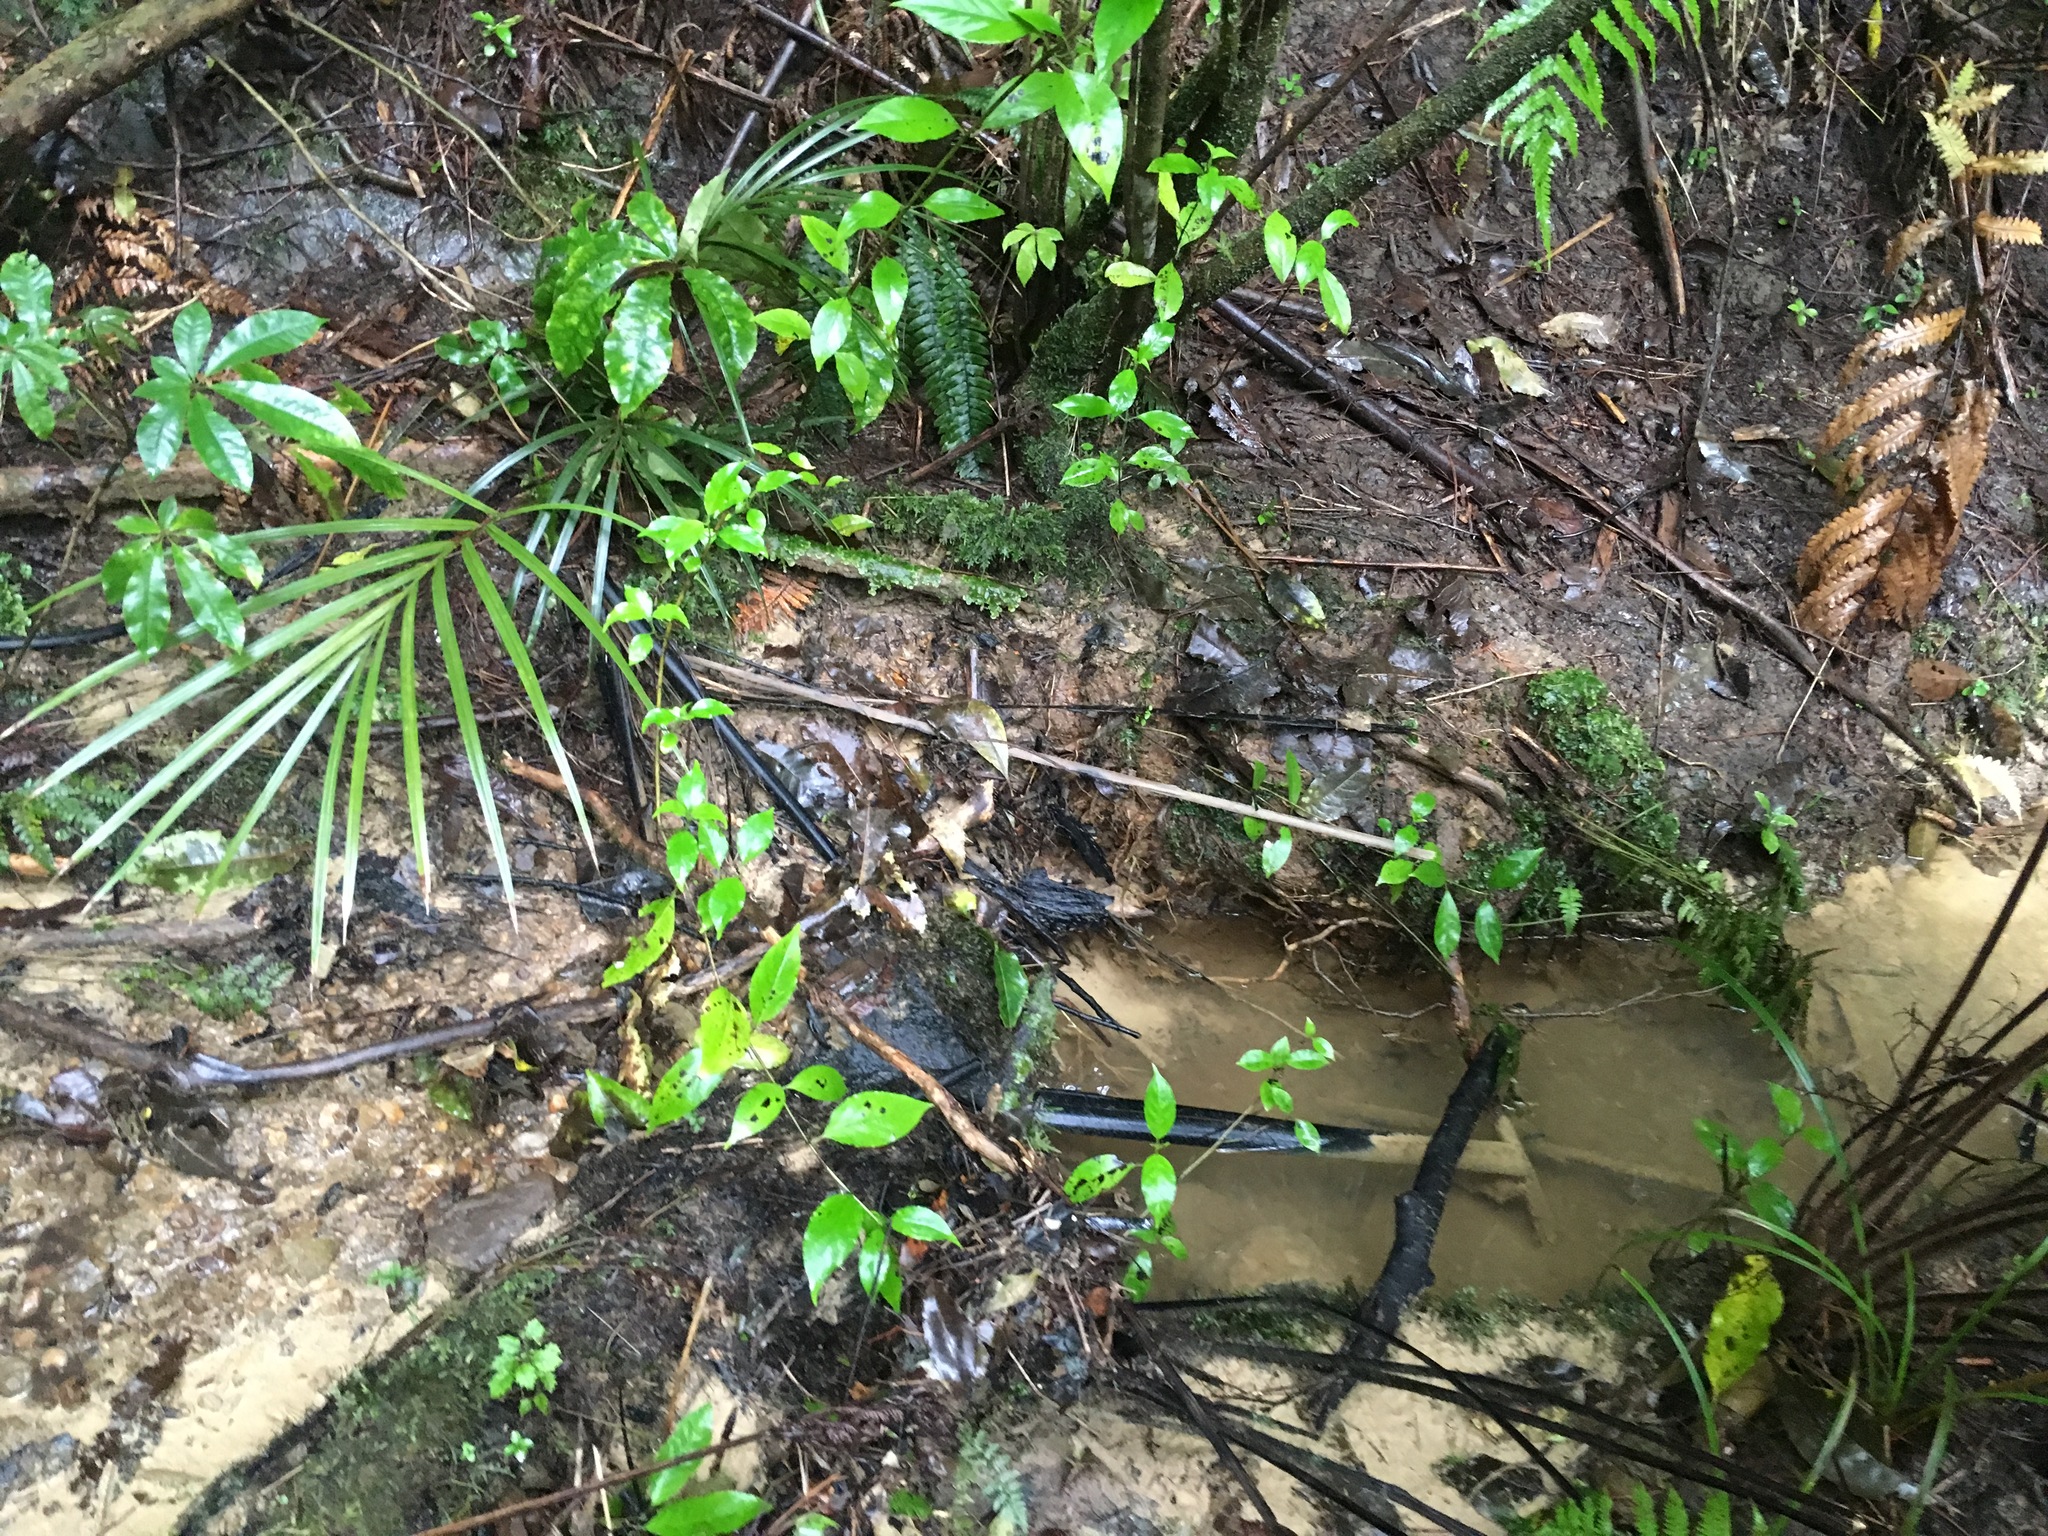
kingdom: Plantae
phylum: Tracheophyta
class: Magnoliopsida
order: Apiales
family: Araliaceae
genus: Schefflera
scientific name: Schefflera digitata
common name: Pate
